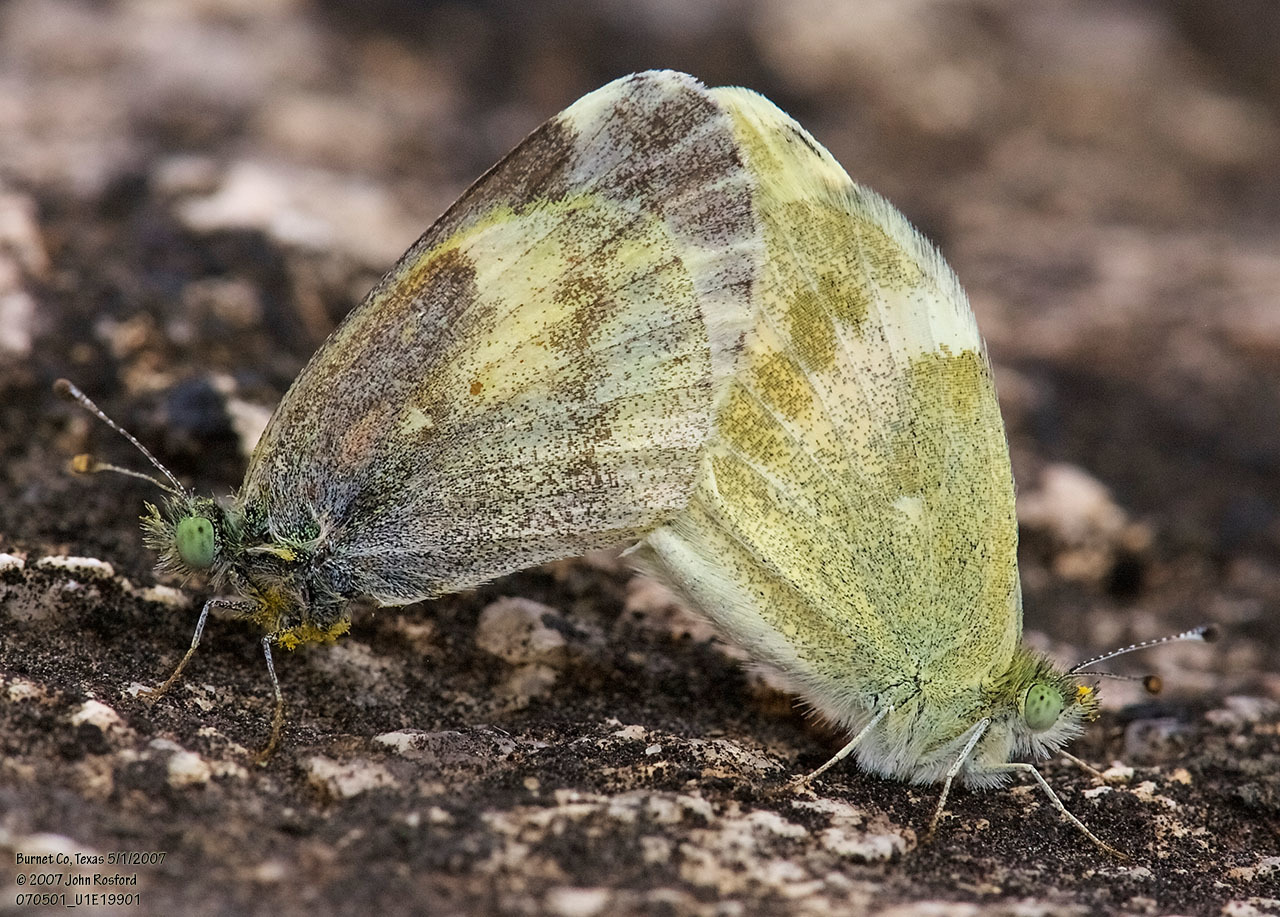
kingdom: Animalia
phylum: Arthropoda
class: Insecta
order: Lepidoptera
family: Pieridae
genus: Nathalis
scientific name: Nathalis iole
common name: Dainty sulphur
